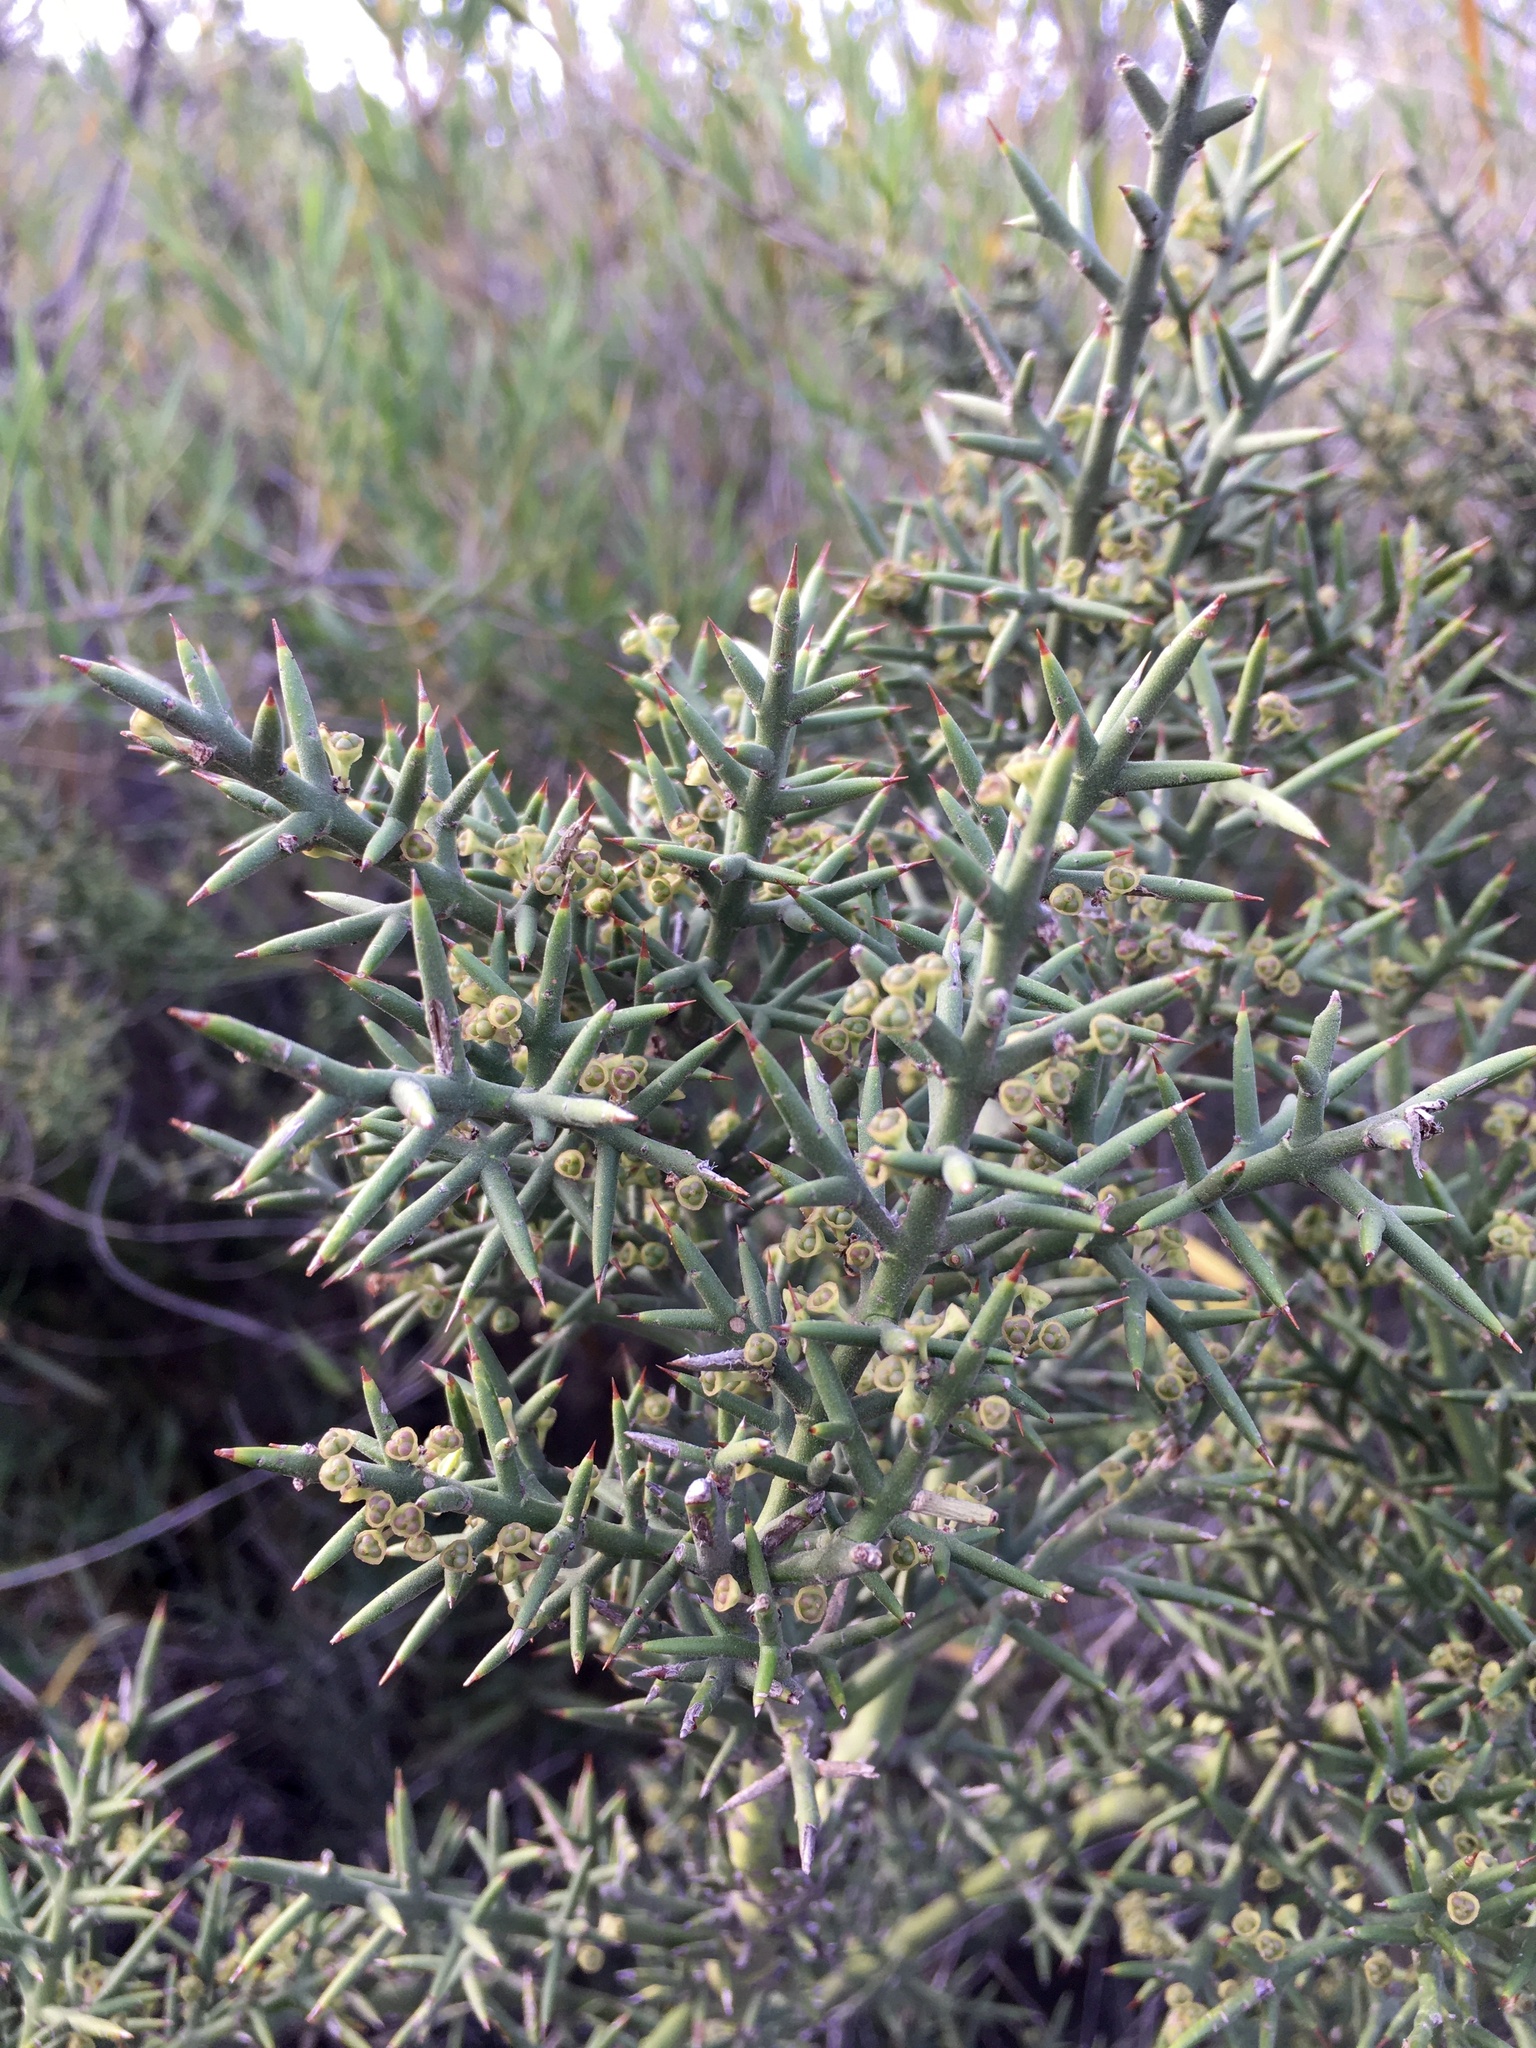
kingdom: Plantae
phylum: Tracheophyta
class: Magnoliopsida
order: Rosales
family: Rhamnaceae
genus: Colletia
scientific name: Colletia hystrix
